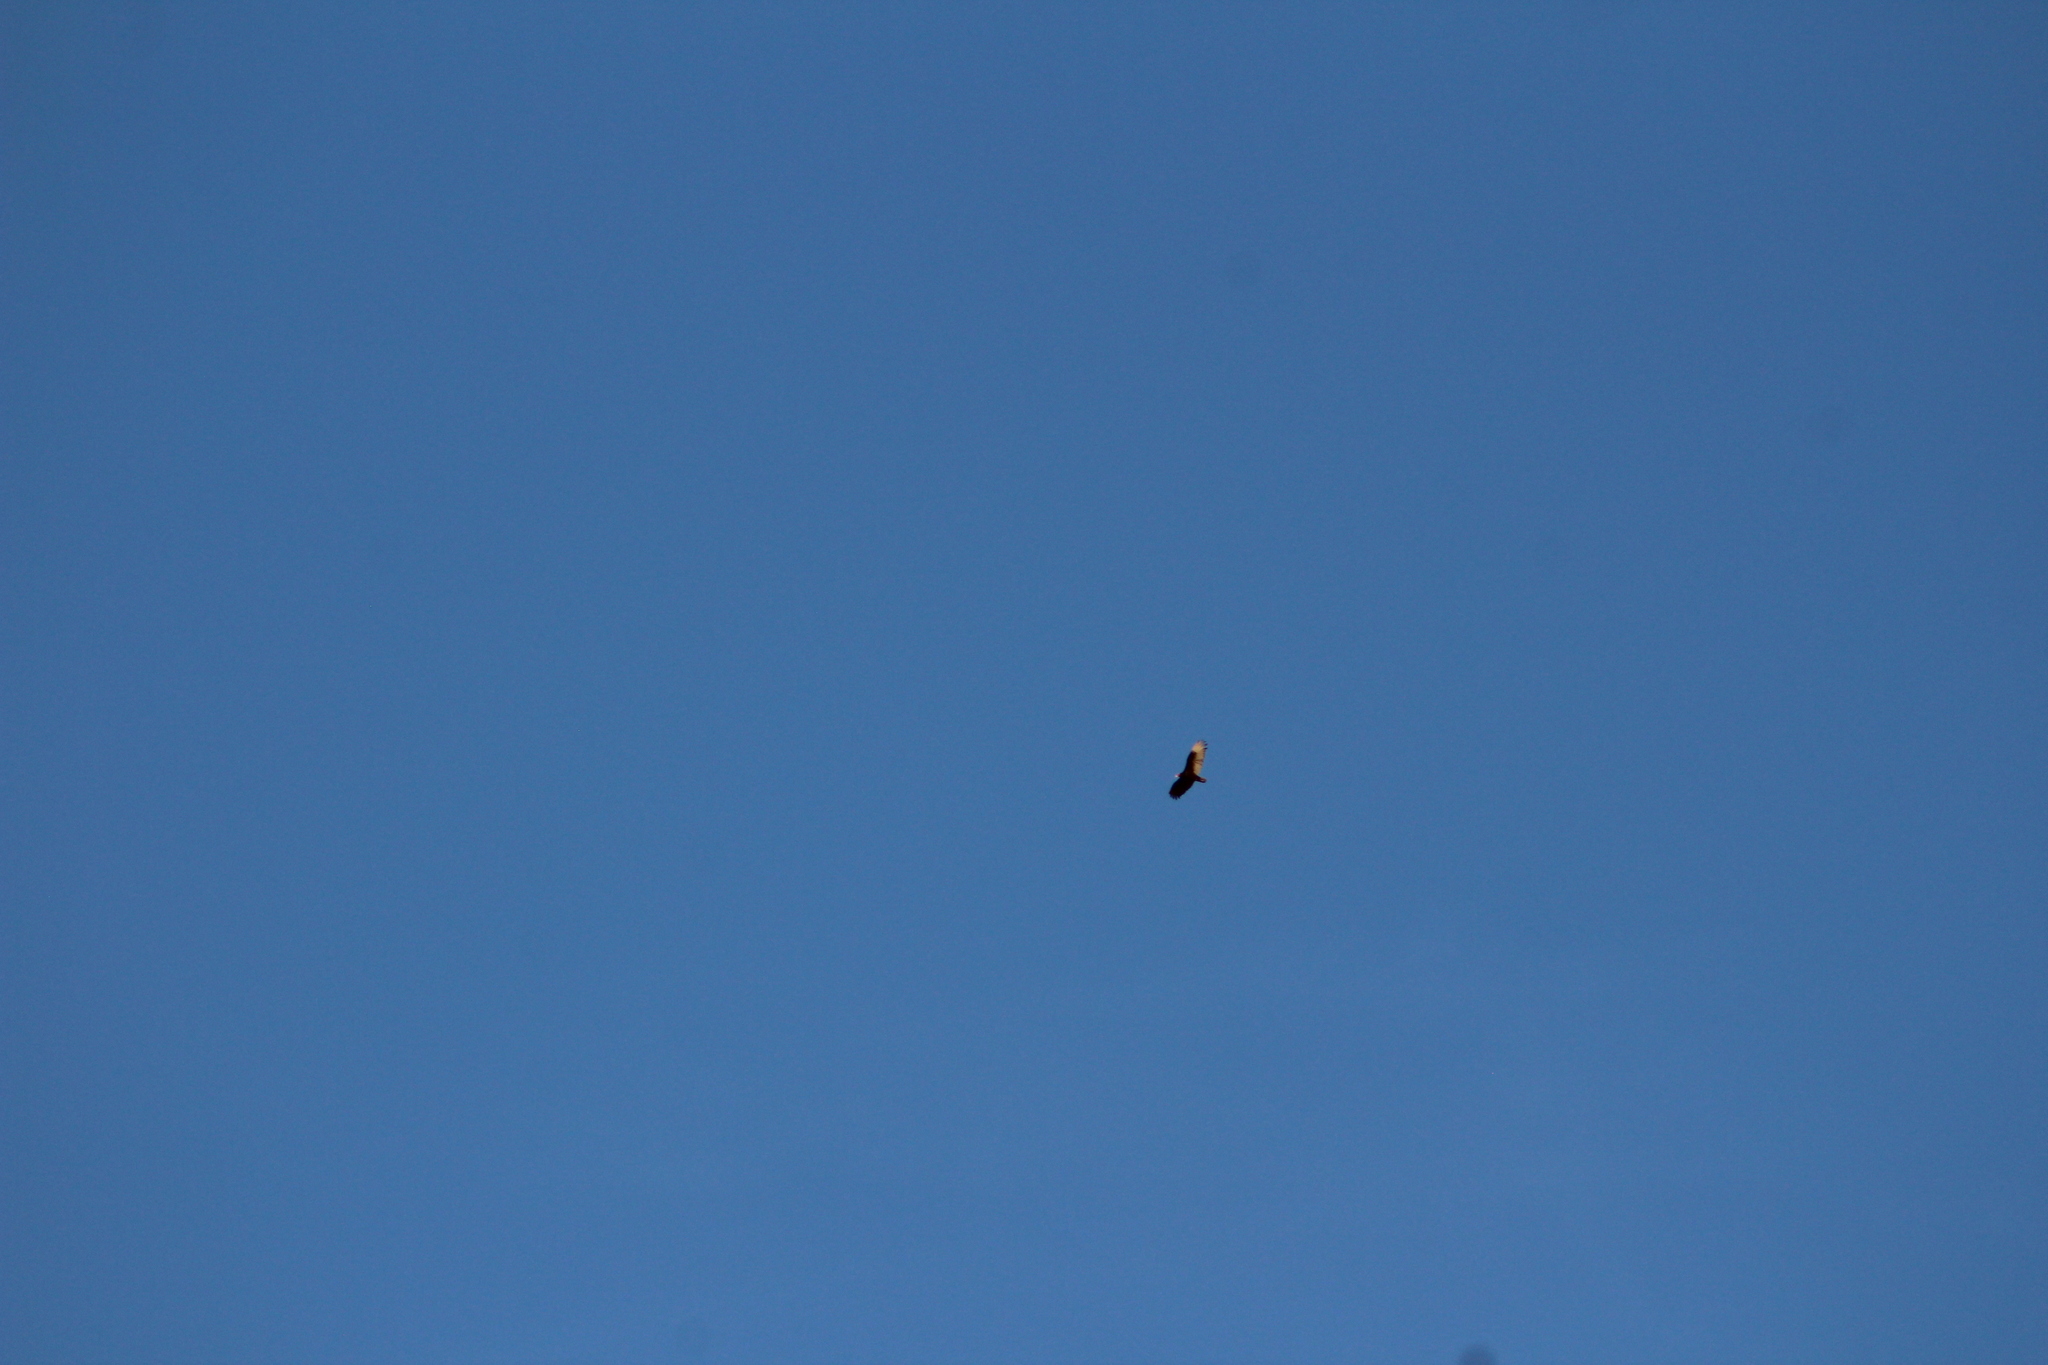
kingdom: Animalia
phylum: Chordata
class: Aves
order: Accipitriformes
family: Cathartidae
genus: Cathartes
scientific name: Cathartes aura
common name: Turkey vulture
